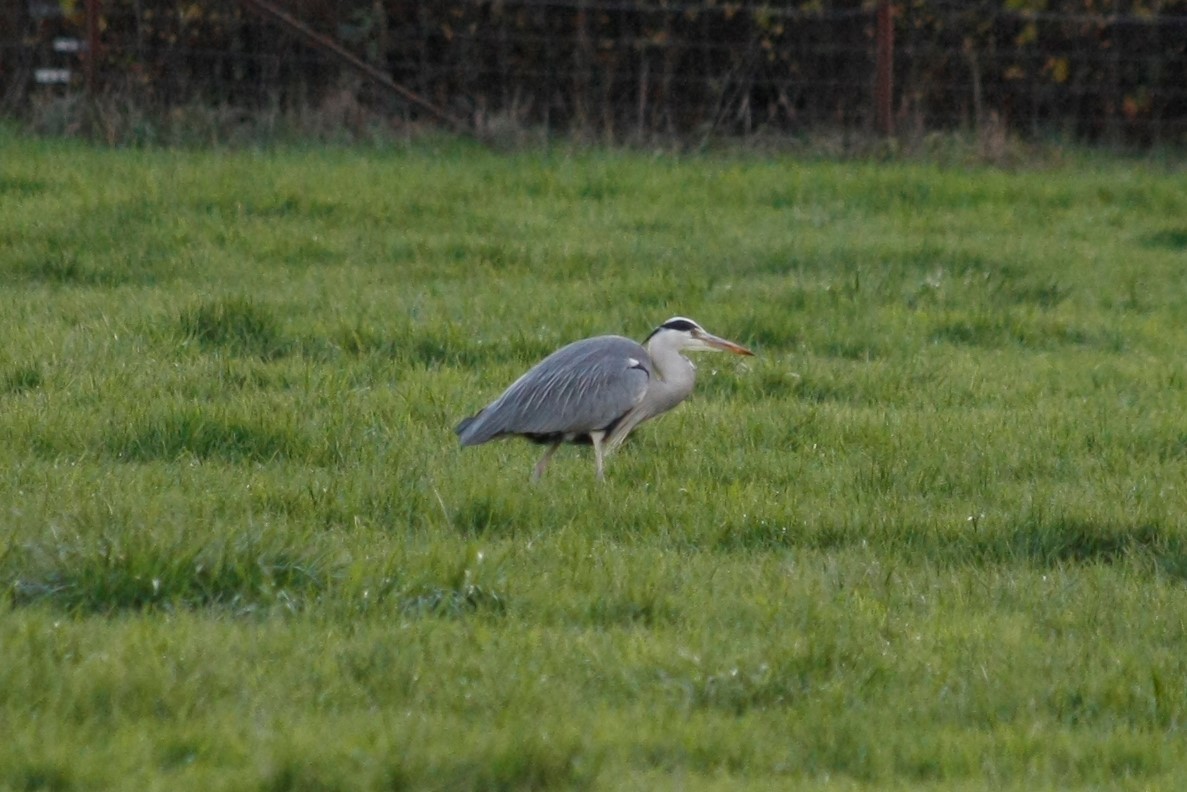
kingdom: Animalia
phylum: Chordata
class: Aves
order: Pelecaniformes
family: Ardeidae
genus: Ardea
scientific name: Ardea cinerea
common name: Grey heron
